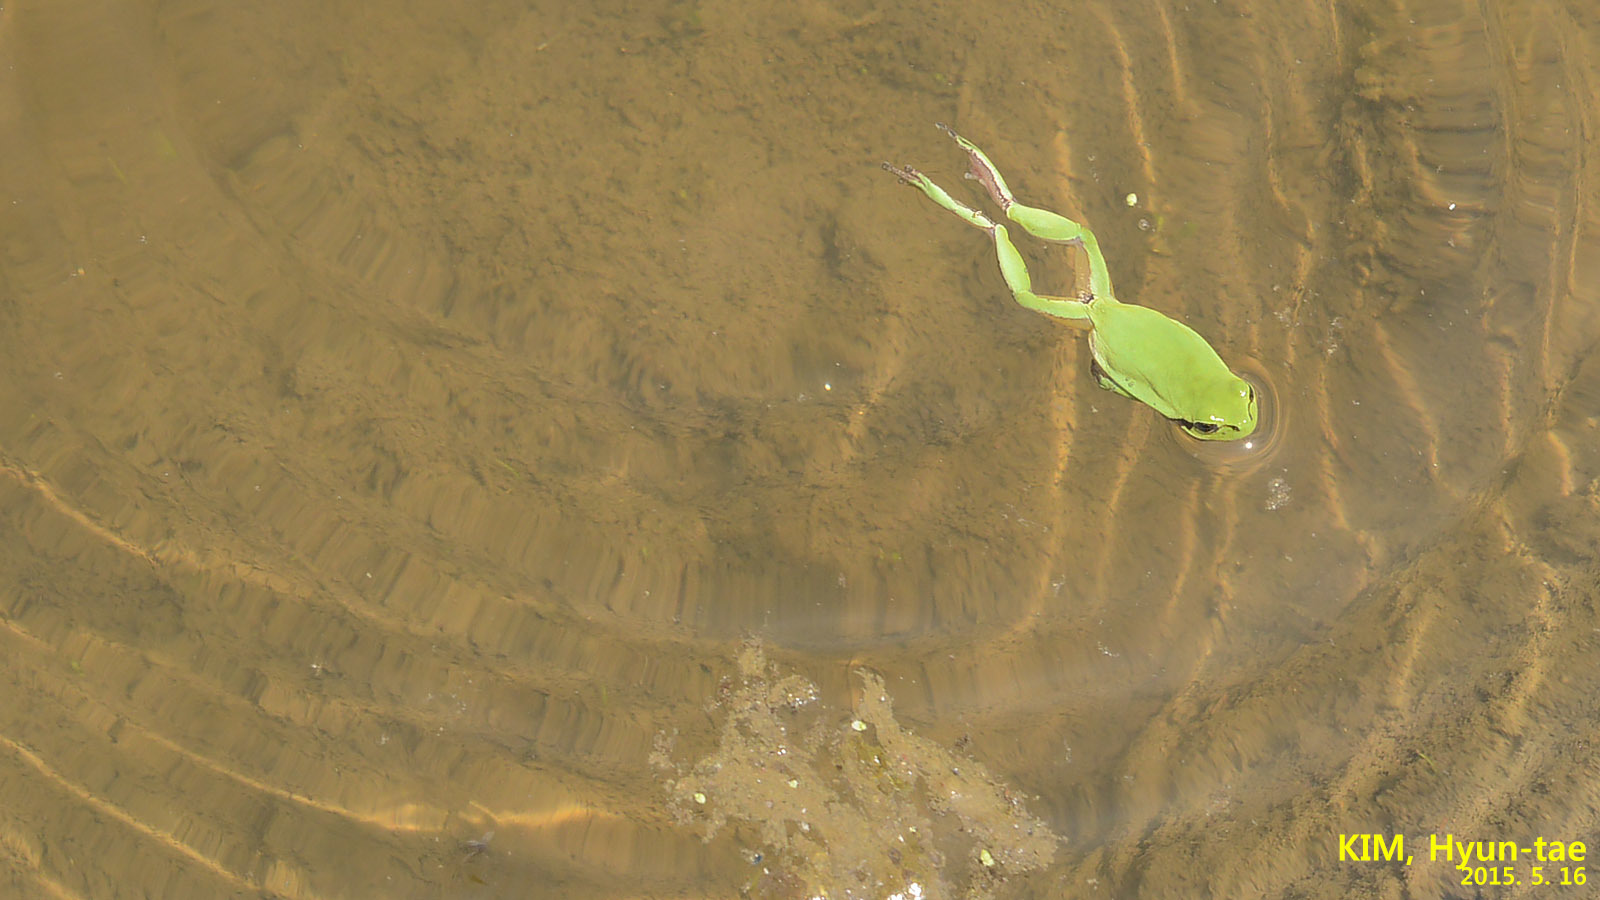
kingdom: Animalia
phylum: Chordata
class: Amphibia
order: Anura
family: Hylidae
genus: Hyla
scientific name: Hyla
